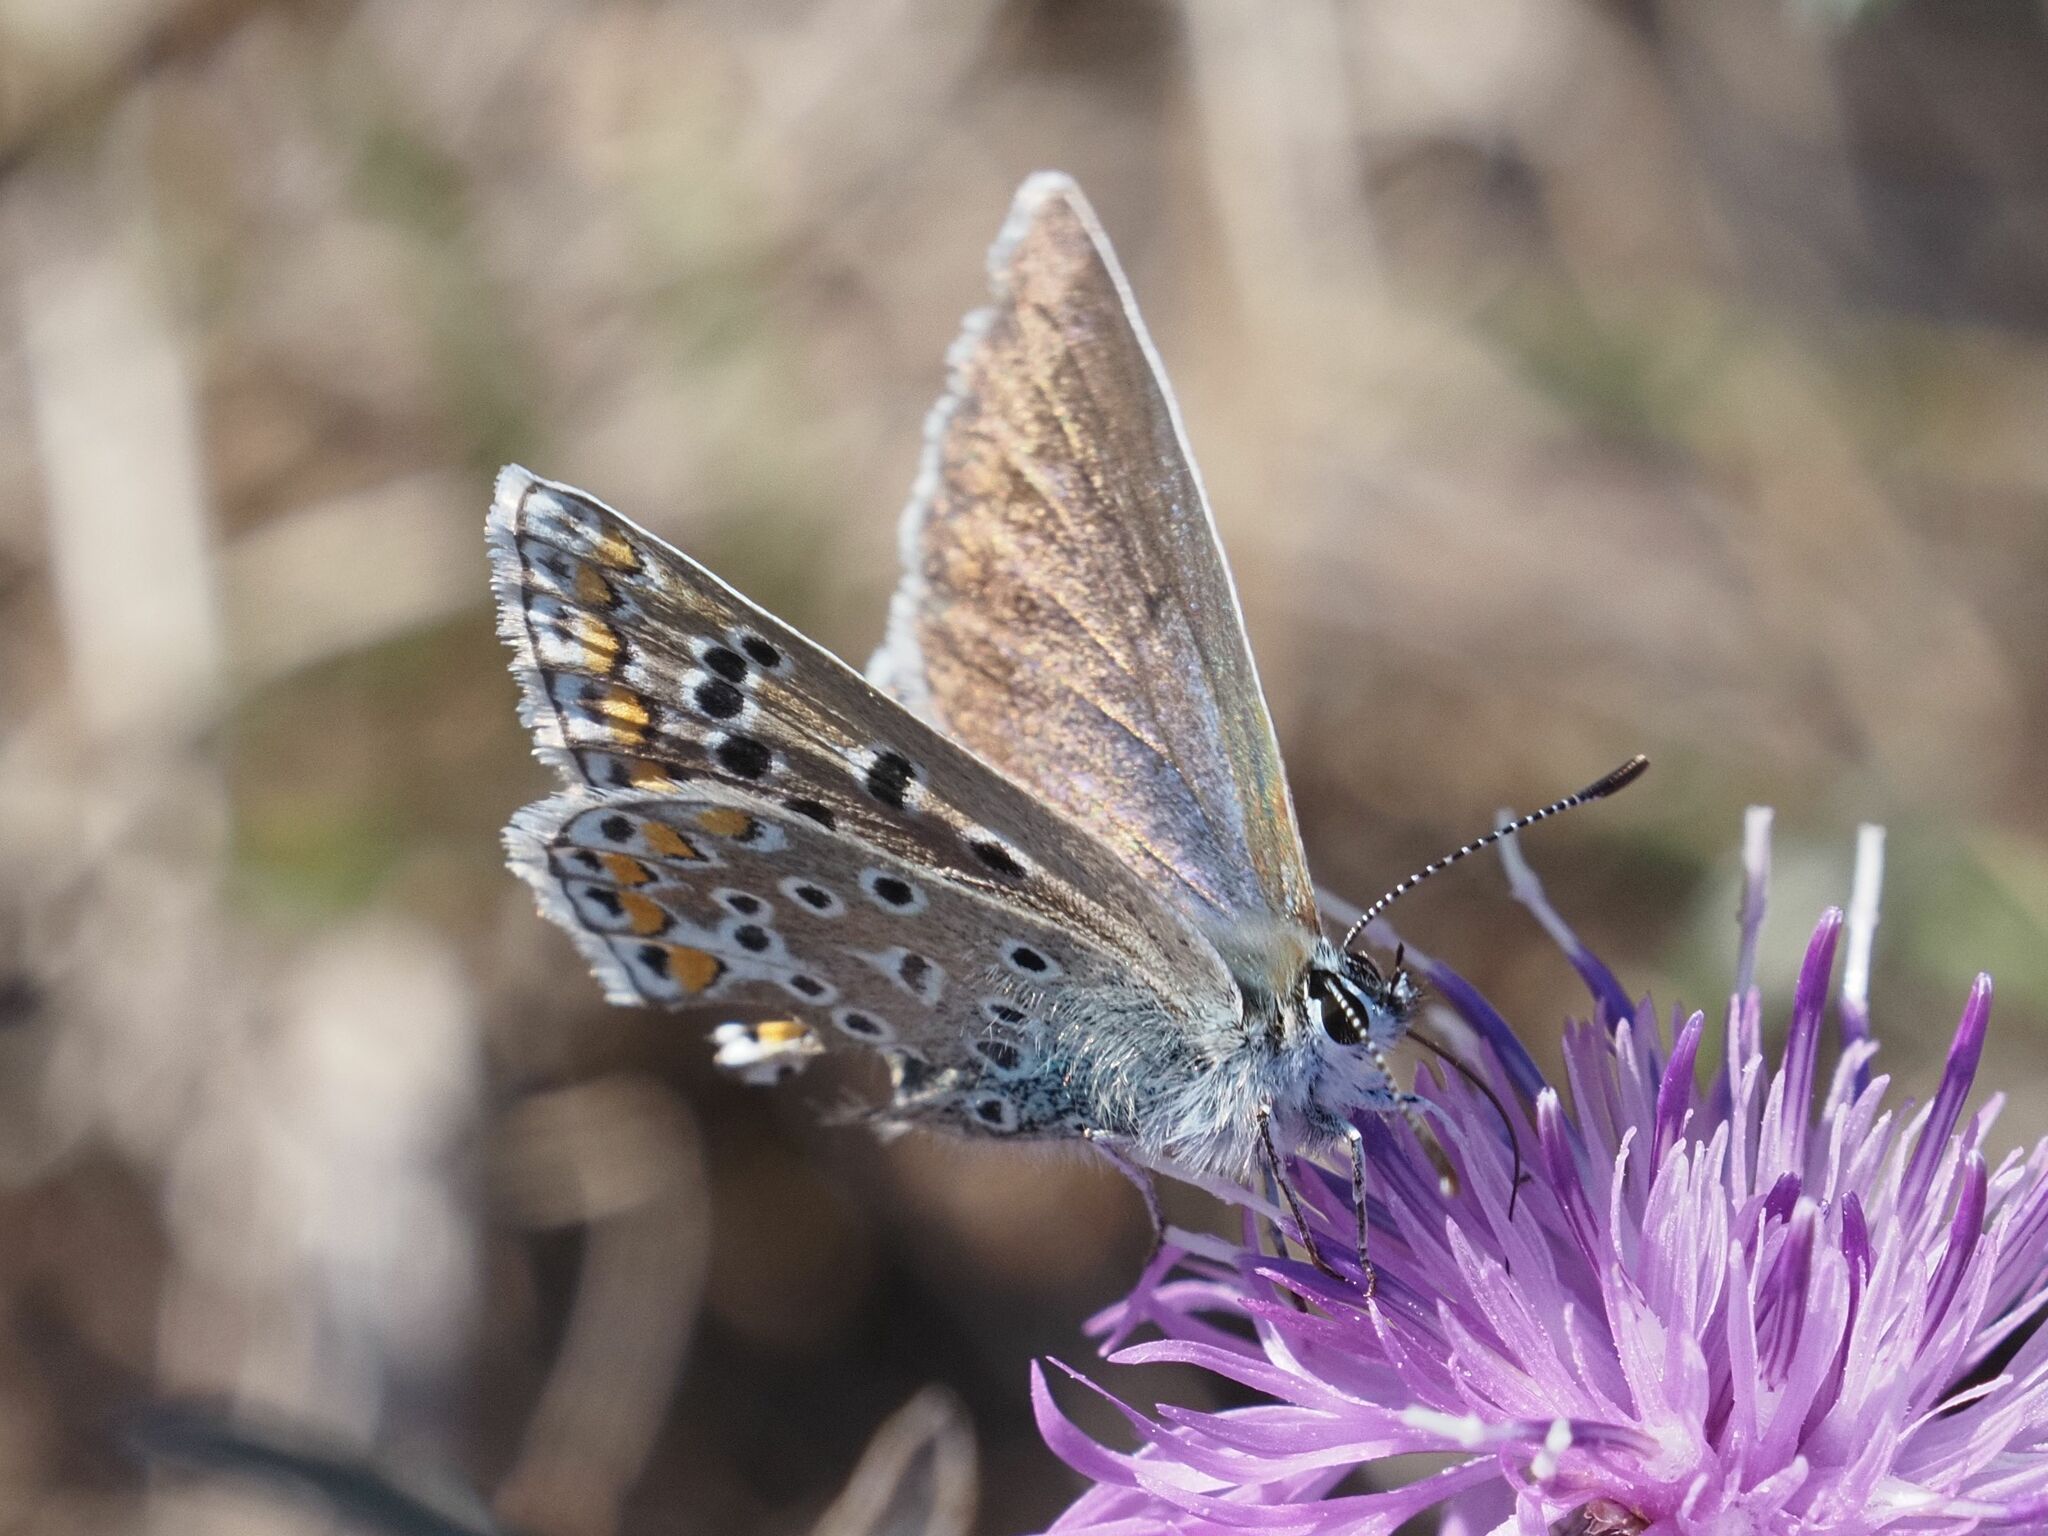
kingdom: Animalia
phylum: Arthropoda
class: Insecta
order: Lepidoptera
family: Lycaenidae
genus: Polyommatus
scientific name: Polyommatus icarus
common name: Common blue
